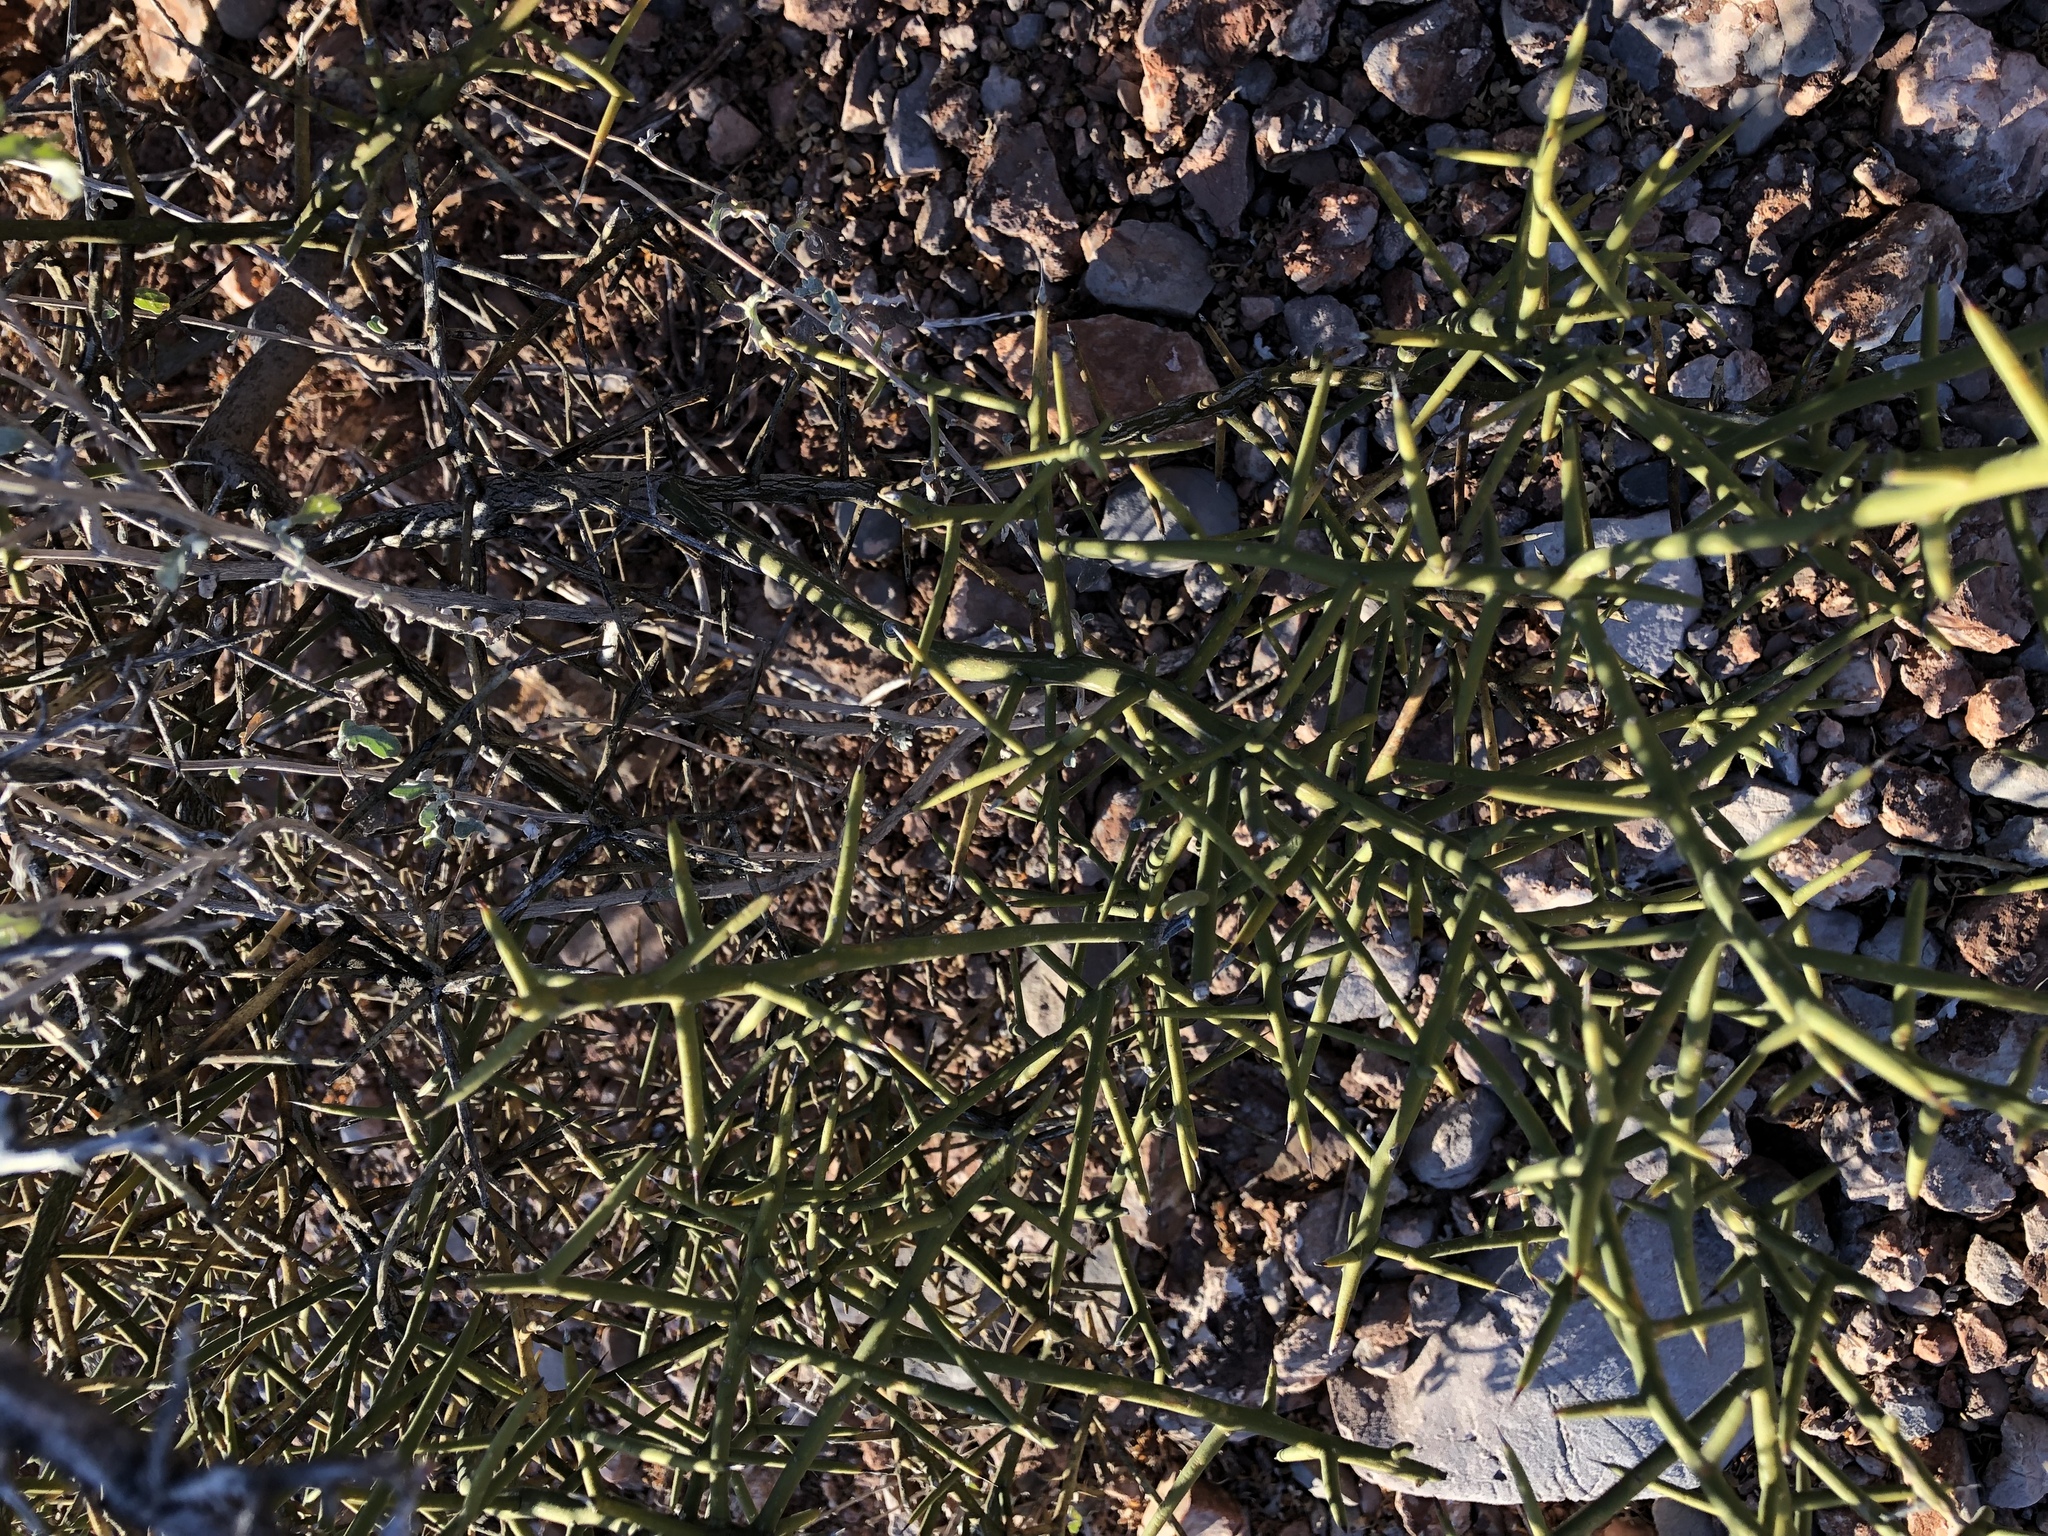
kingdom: Plantae
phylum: Tracheophyta
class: Magnoliopsida
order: Brassicales
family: Koeberliniaceae
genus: Koeberlinia
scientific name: Koeberlinia spinosa
